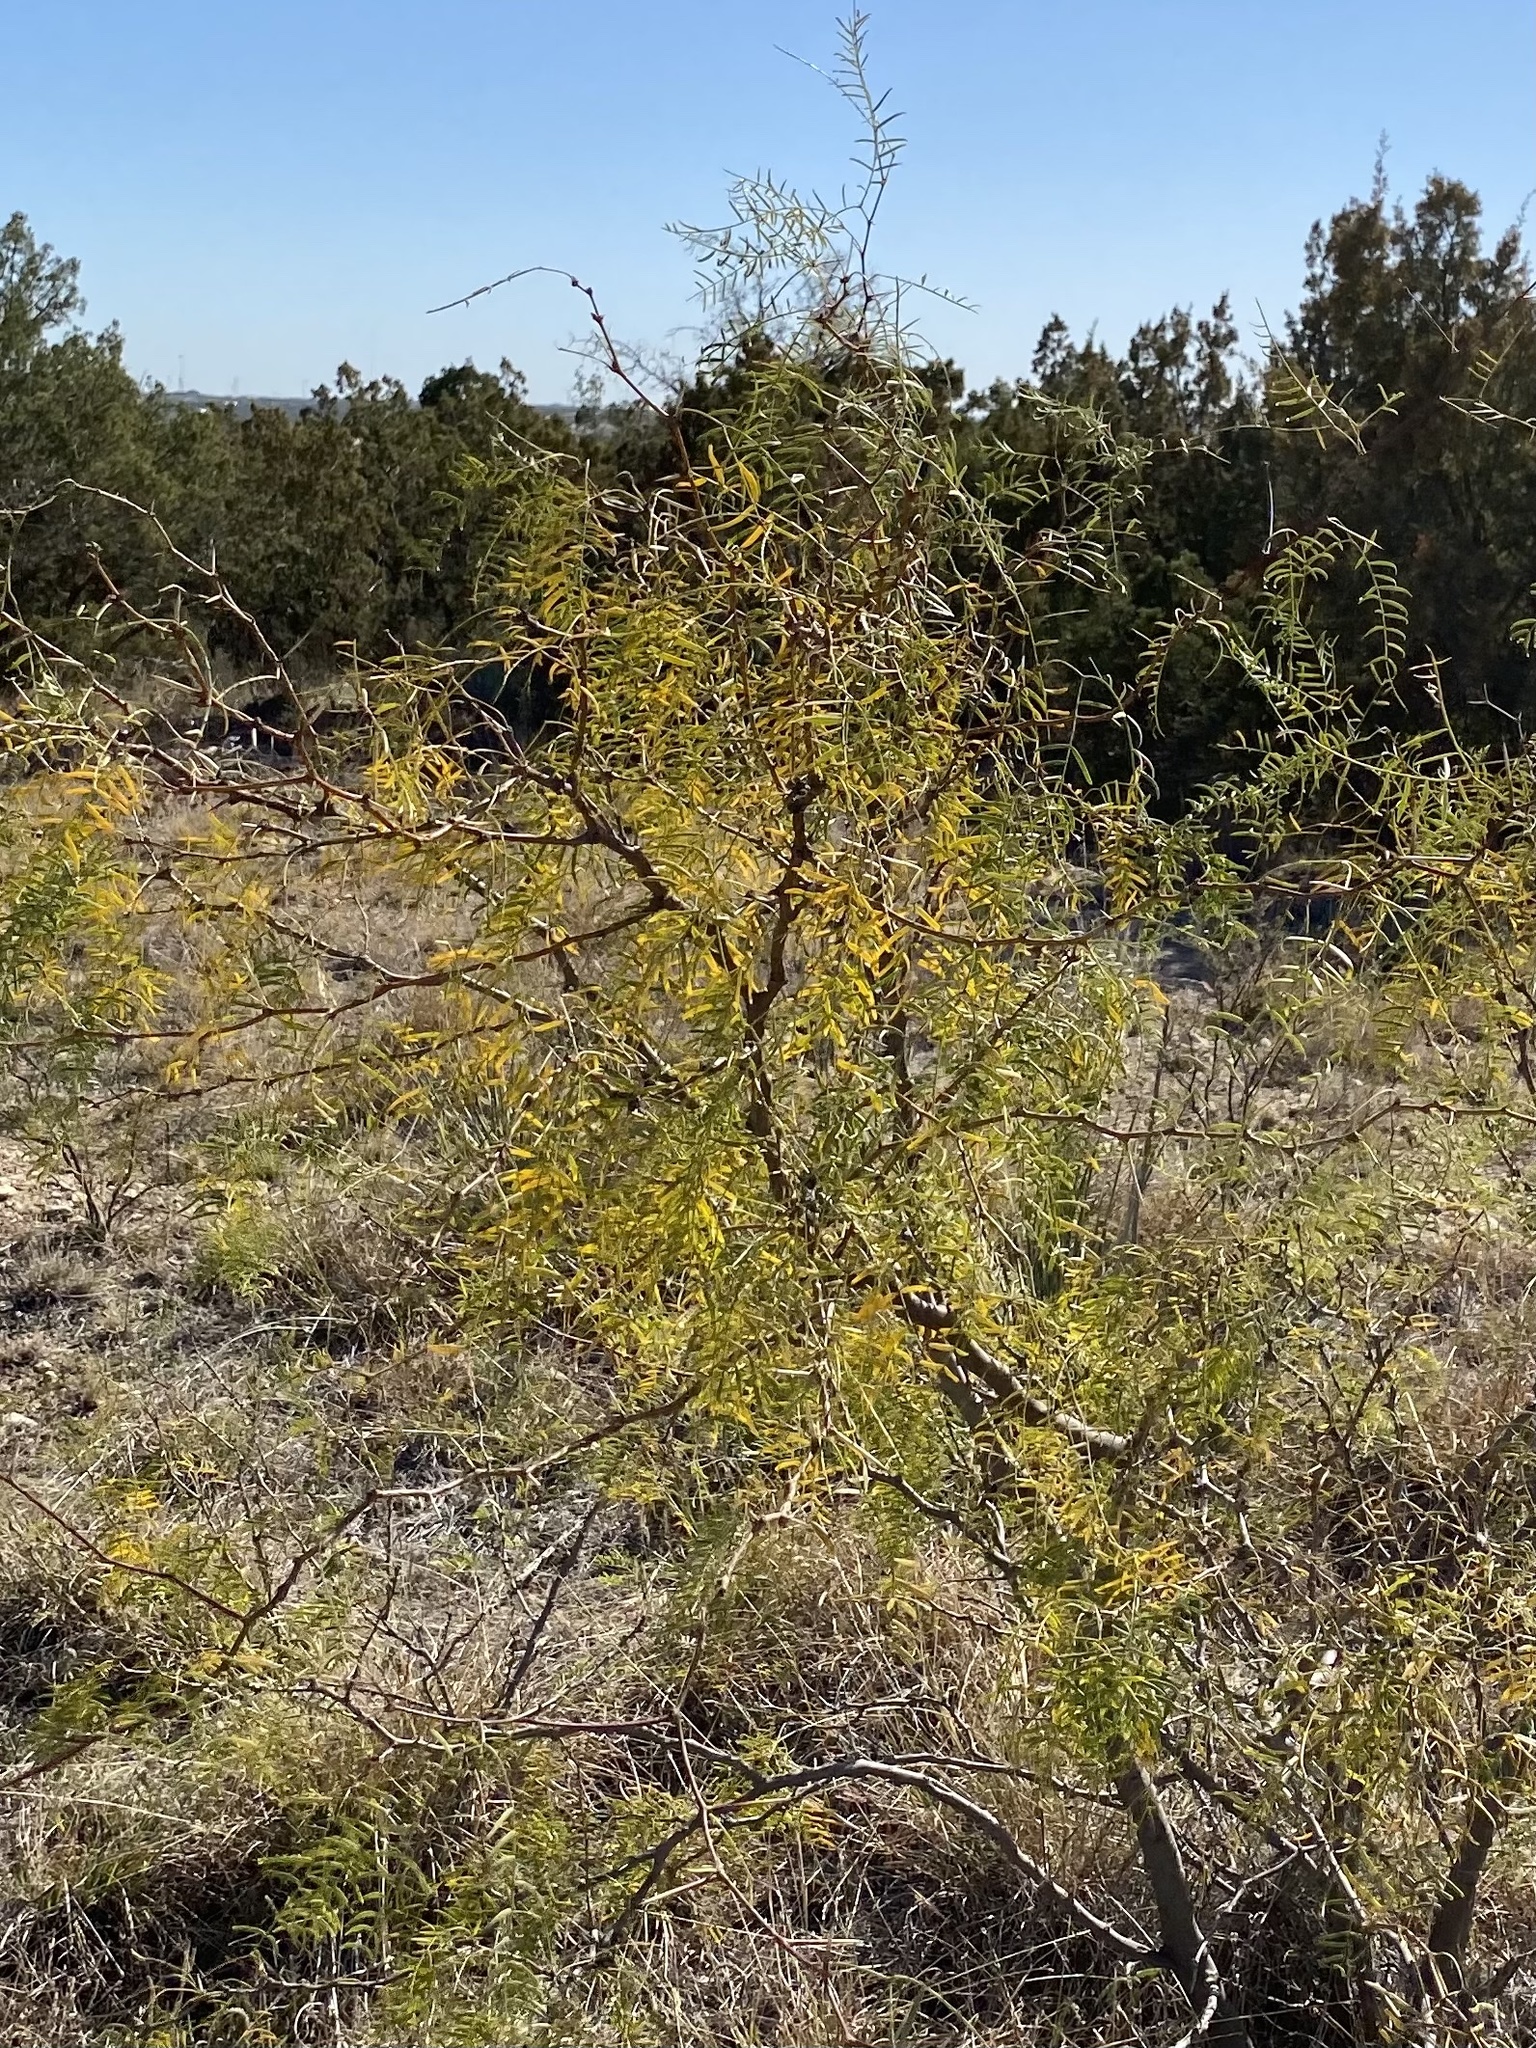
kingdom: Plantae
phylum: Tracheophyta
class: Magnoliopsida
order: Fabales
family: Fabaceae
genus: Prosopis
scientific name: Prosopis glandulosa
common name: Honey mesquite
